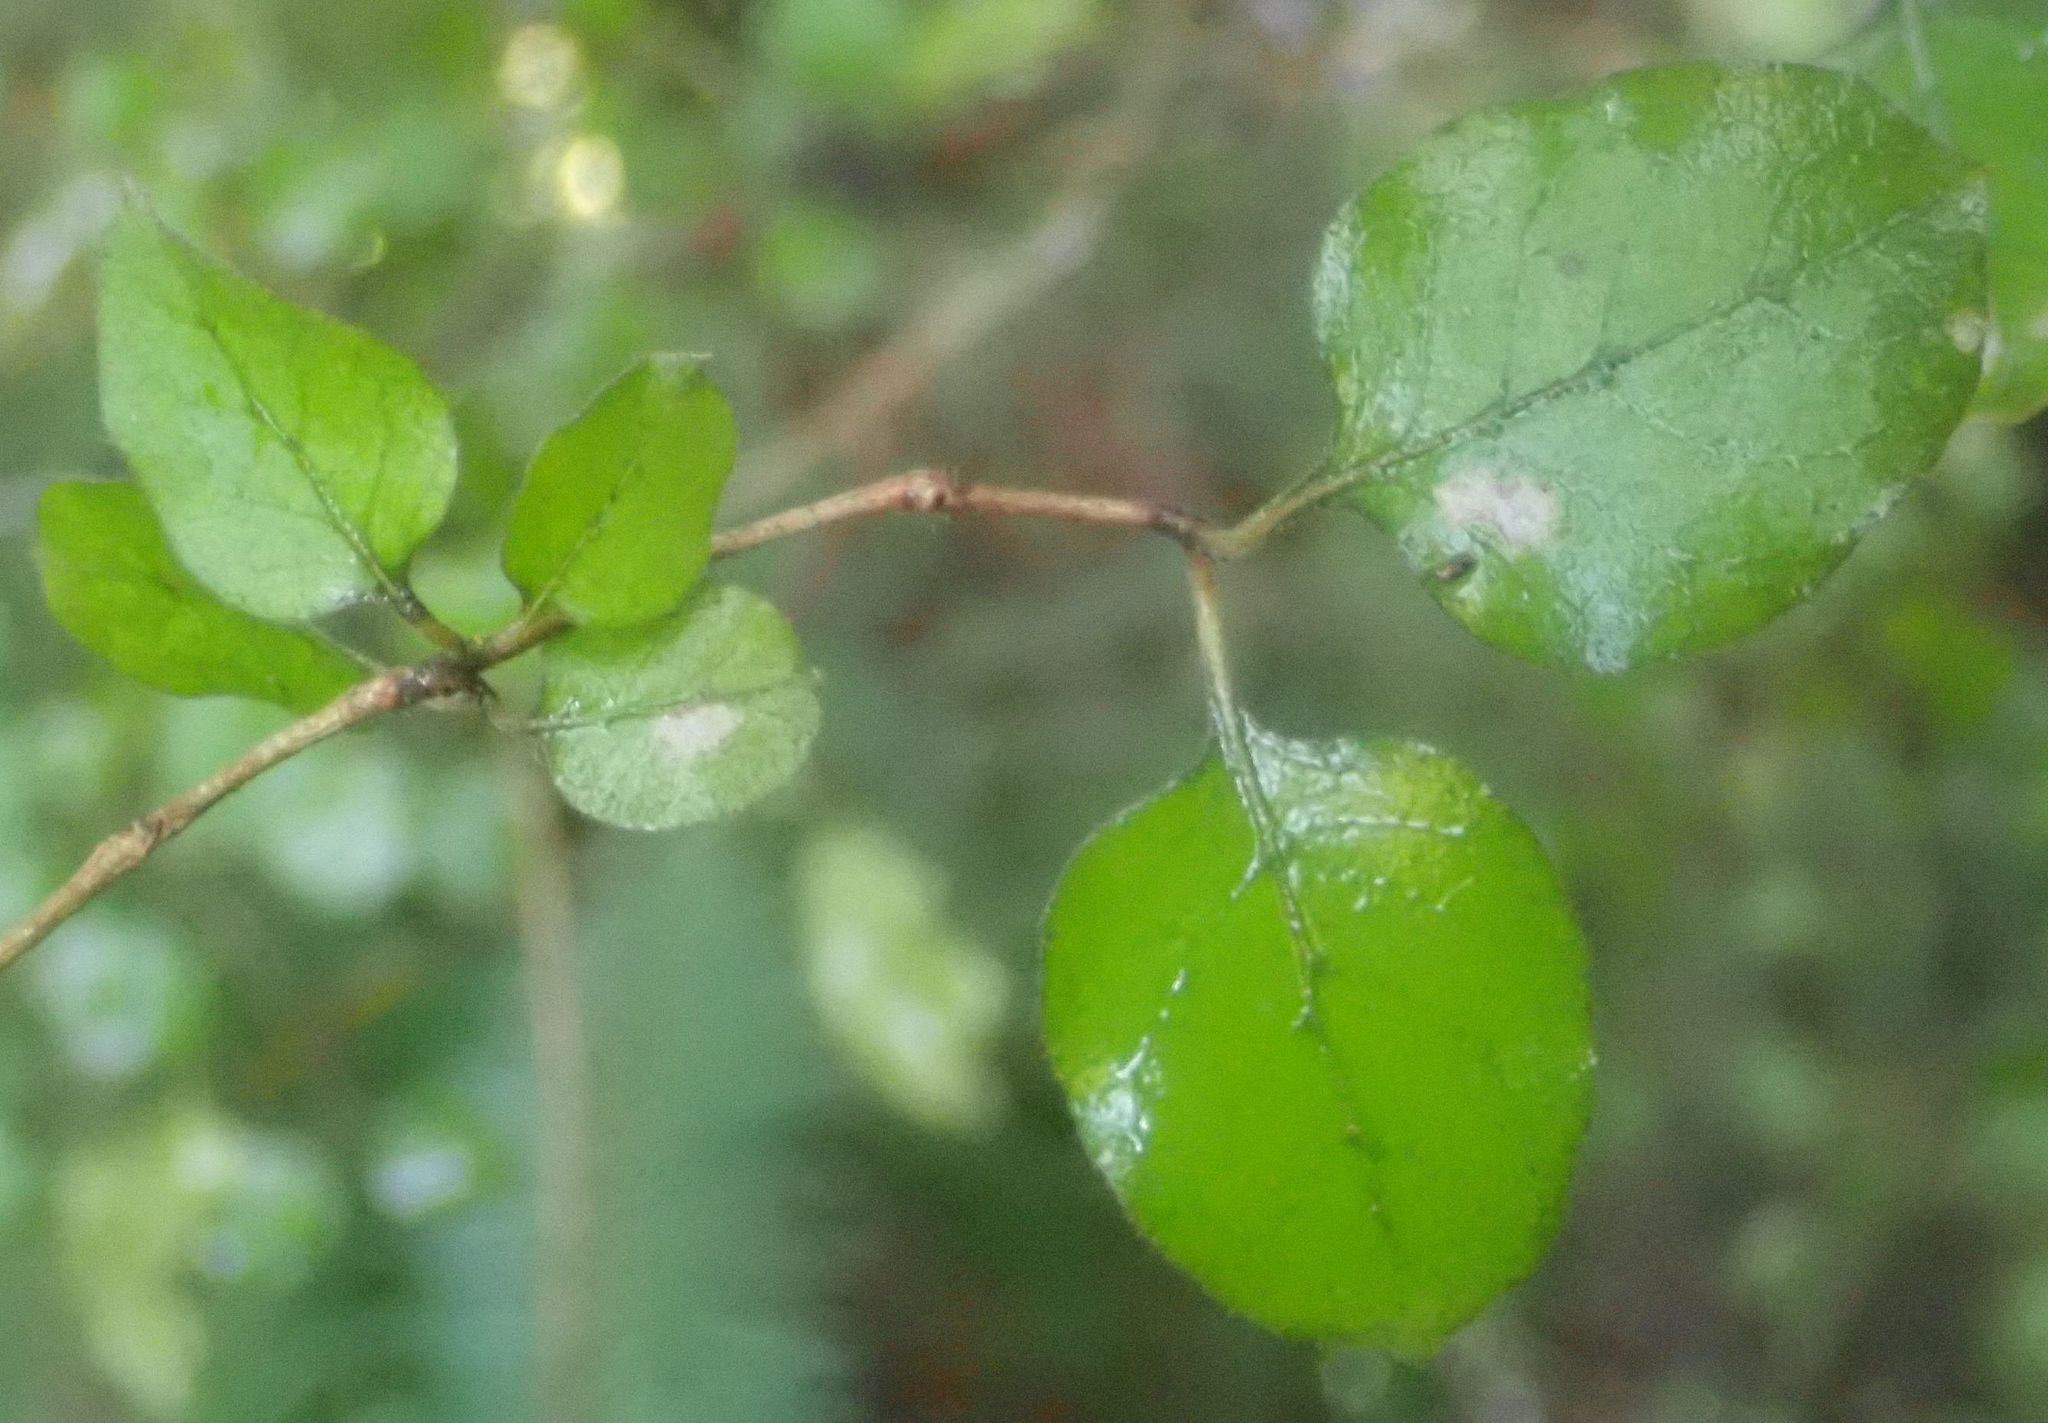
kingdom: Plantae
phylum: Tracheophyta
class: Magnoliopsida
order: Gentianales
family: Rubiaceae
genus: Coprosma
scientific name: Coprosma rotundifolia
